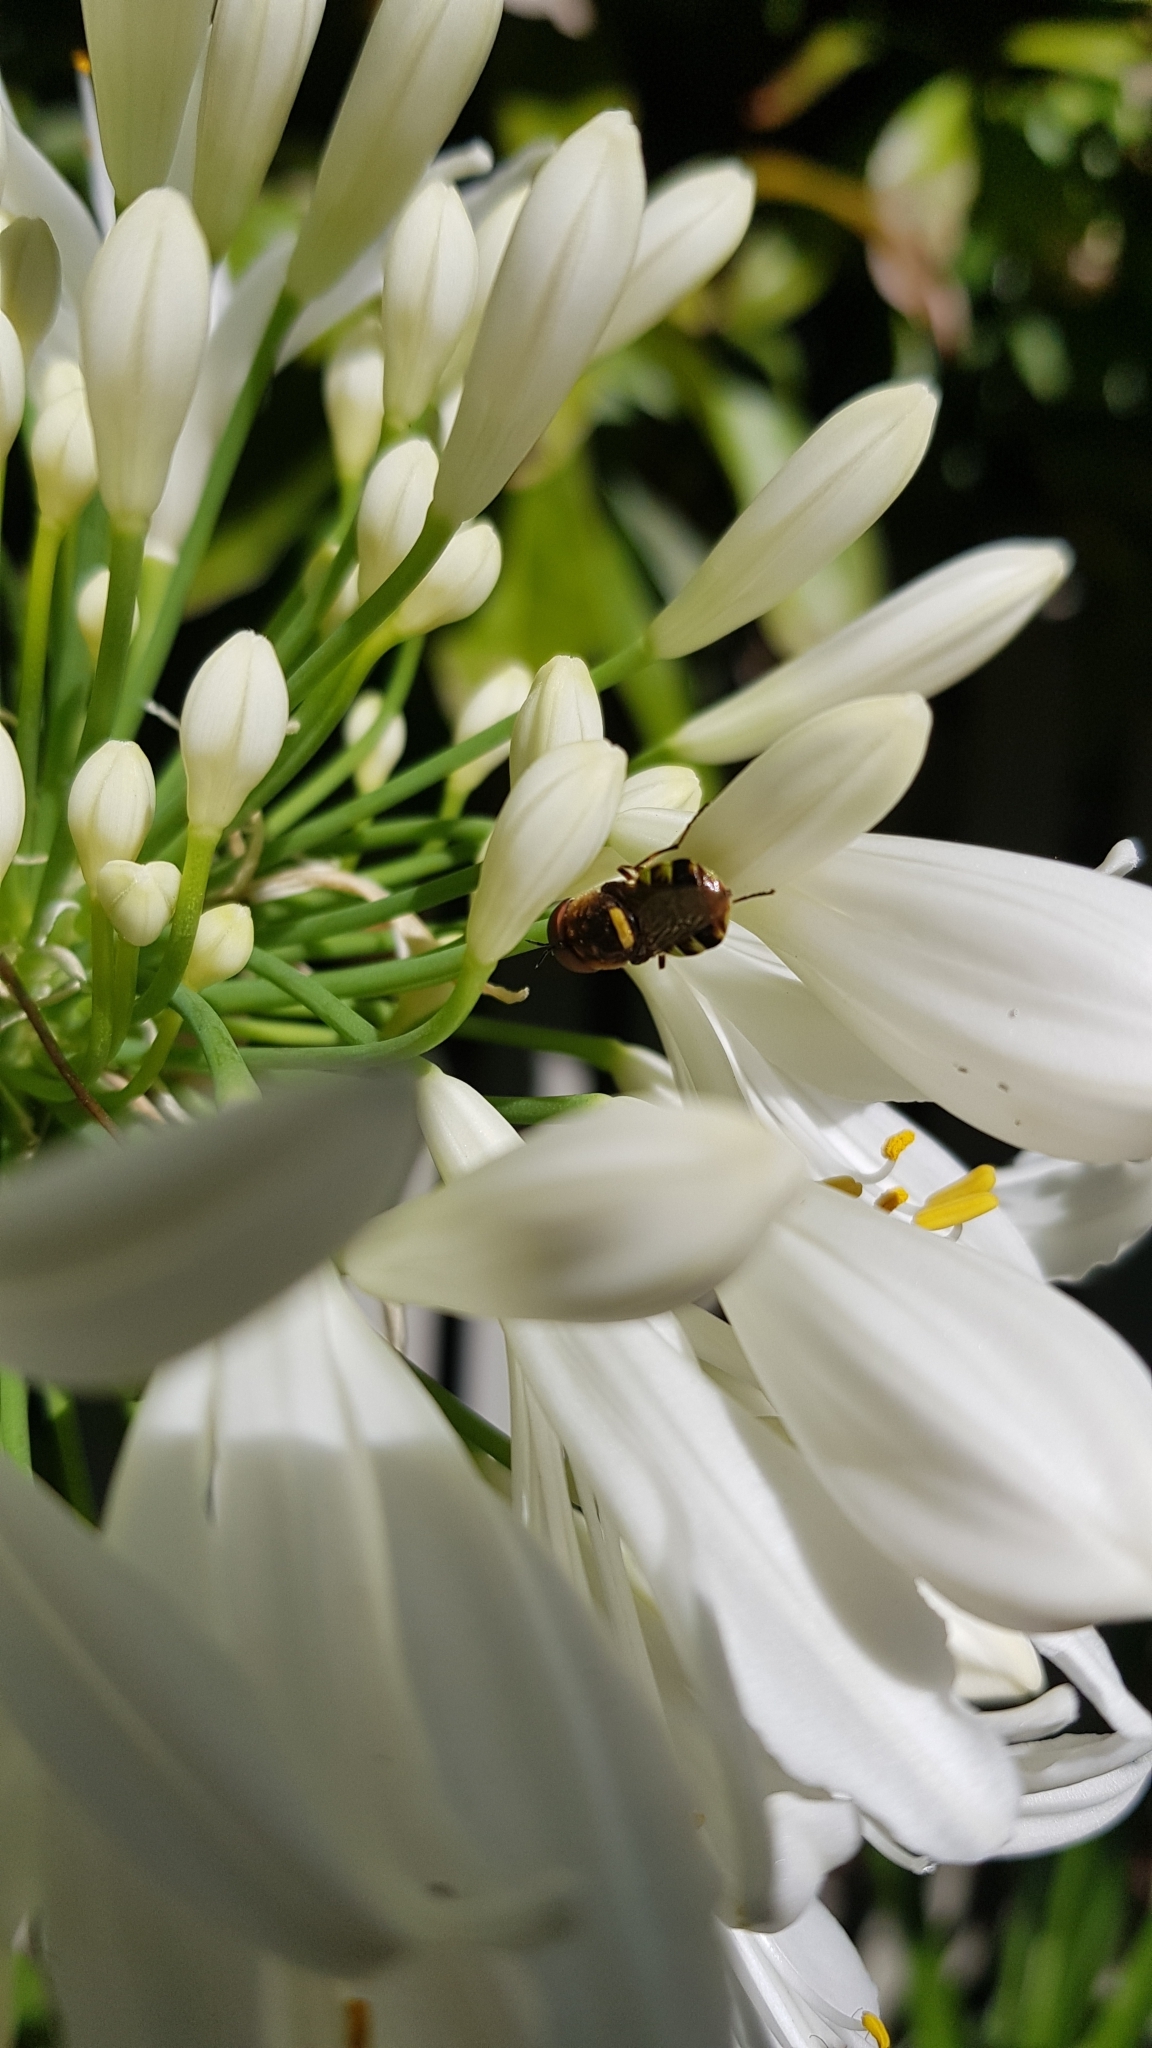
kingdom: Animalia
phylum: Arthropoda
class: Insecta
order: Diptera
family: Stratiomyidae
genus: Odontomyia
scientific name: Odontomyia hunteri
